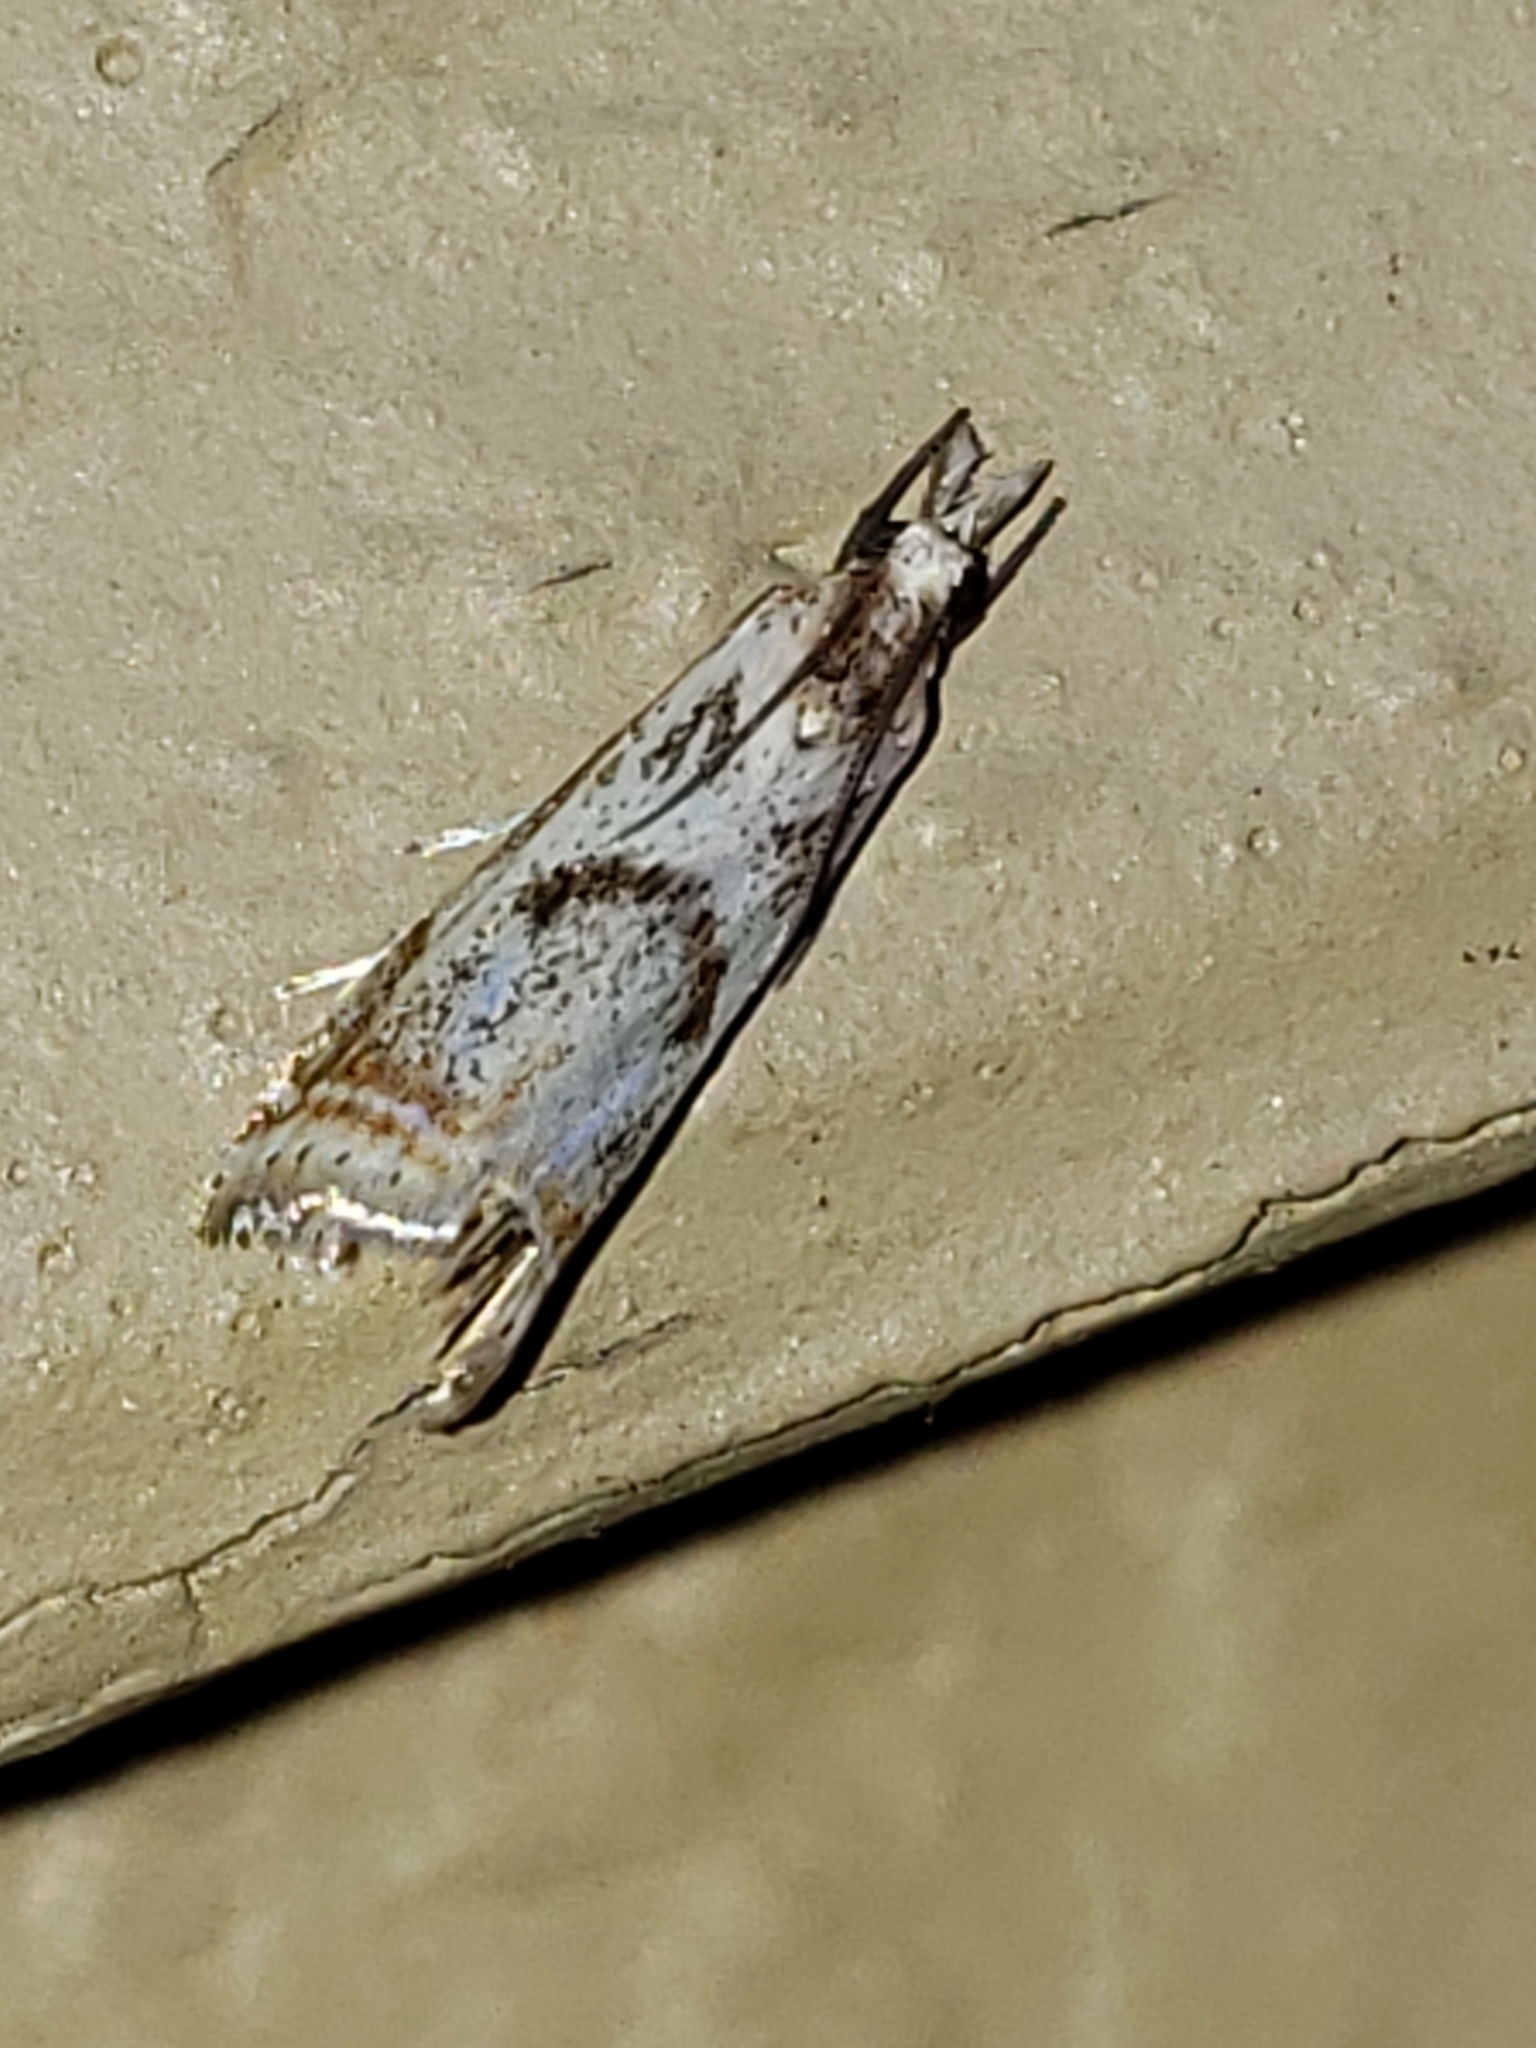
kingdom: Animalia
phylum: Arthropoda
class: Insecta
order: Lepidoptera
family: Crambidae
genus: Microcrambus
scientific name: Microcrambus elegans
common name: Elegant grass-veneer
